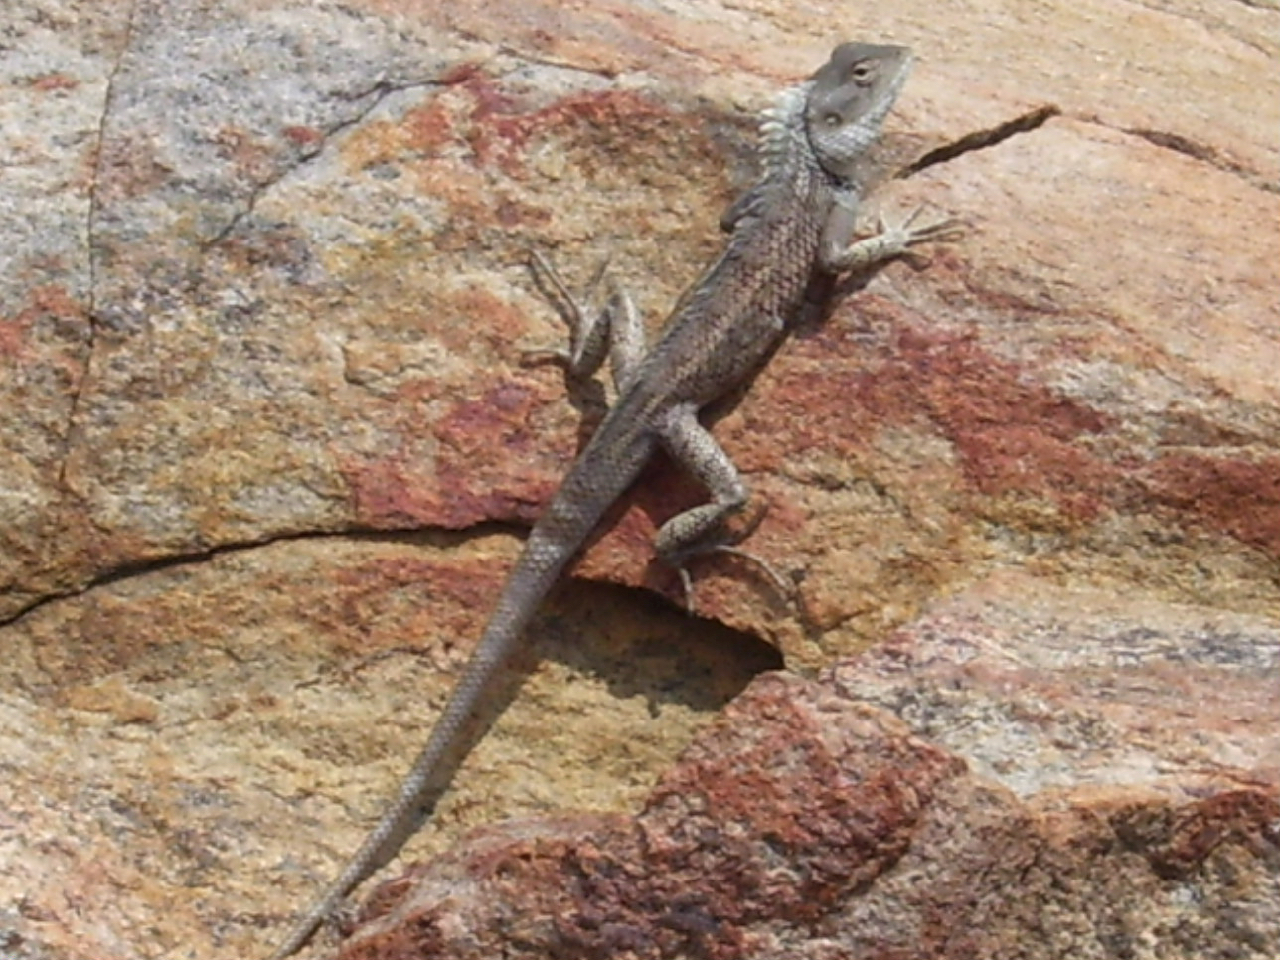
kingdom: Animalia
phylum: Chordata
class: Squamata
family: Agamidae
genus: Calotes
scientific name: Calotes versicolor
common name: Oriental garden lizard
